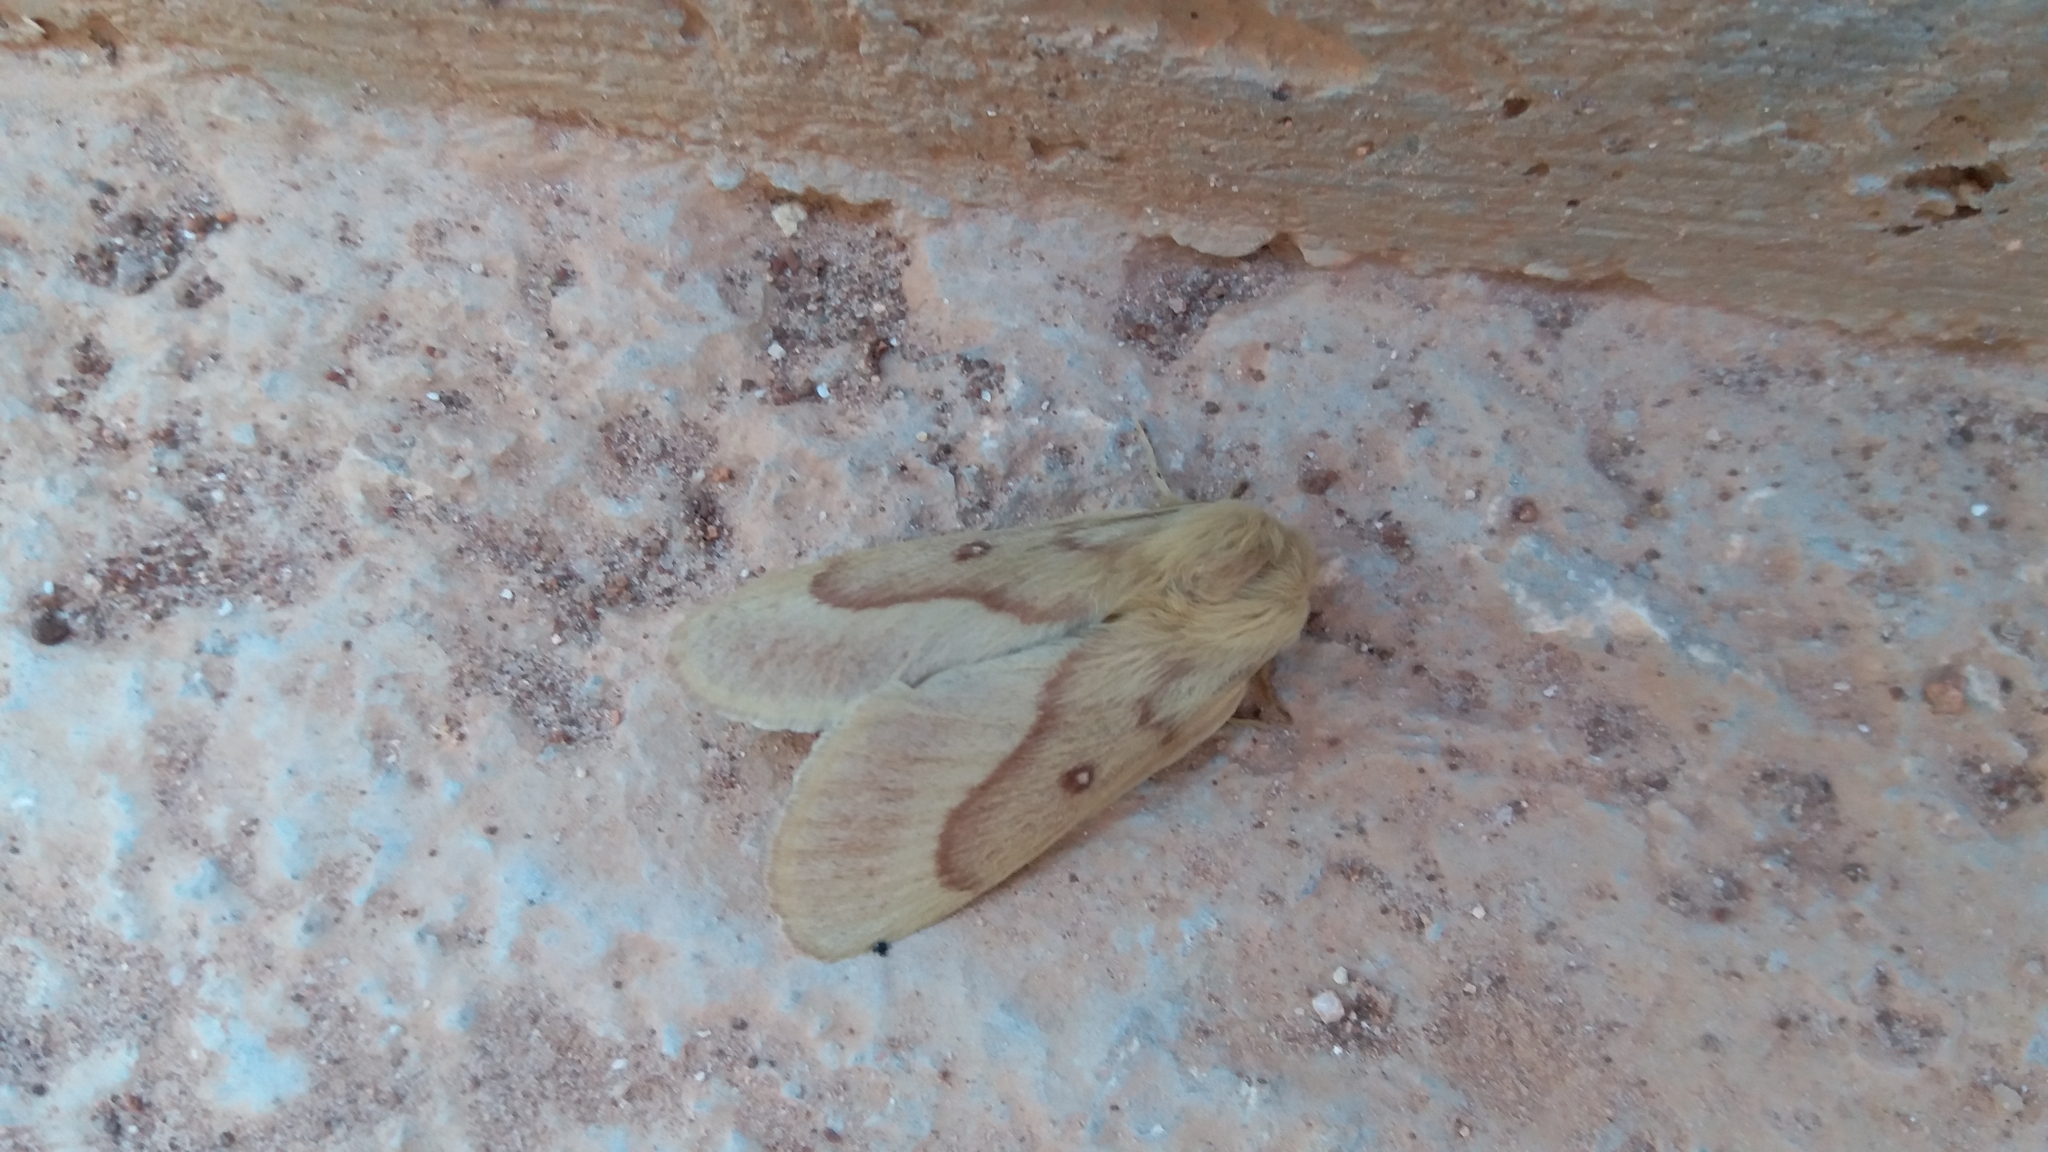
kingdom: Animalia
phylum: Arthropoda
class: Insecta
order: Lepidoptera
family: Lasiocampidae
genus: Lasiocampa
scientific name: Lasiocampa trifolii
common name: Grass eggar
